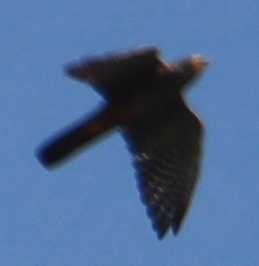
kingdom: Animalia
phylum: Chordata
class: Aves
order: Falconiformes
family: Falconidae
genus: Falco
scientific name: Falco novaeseelandiae
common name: New zealand falcon
